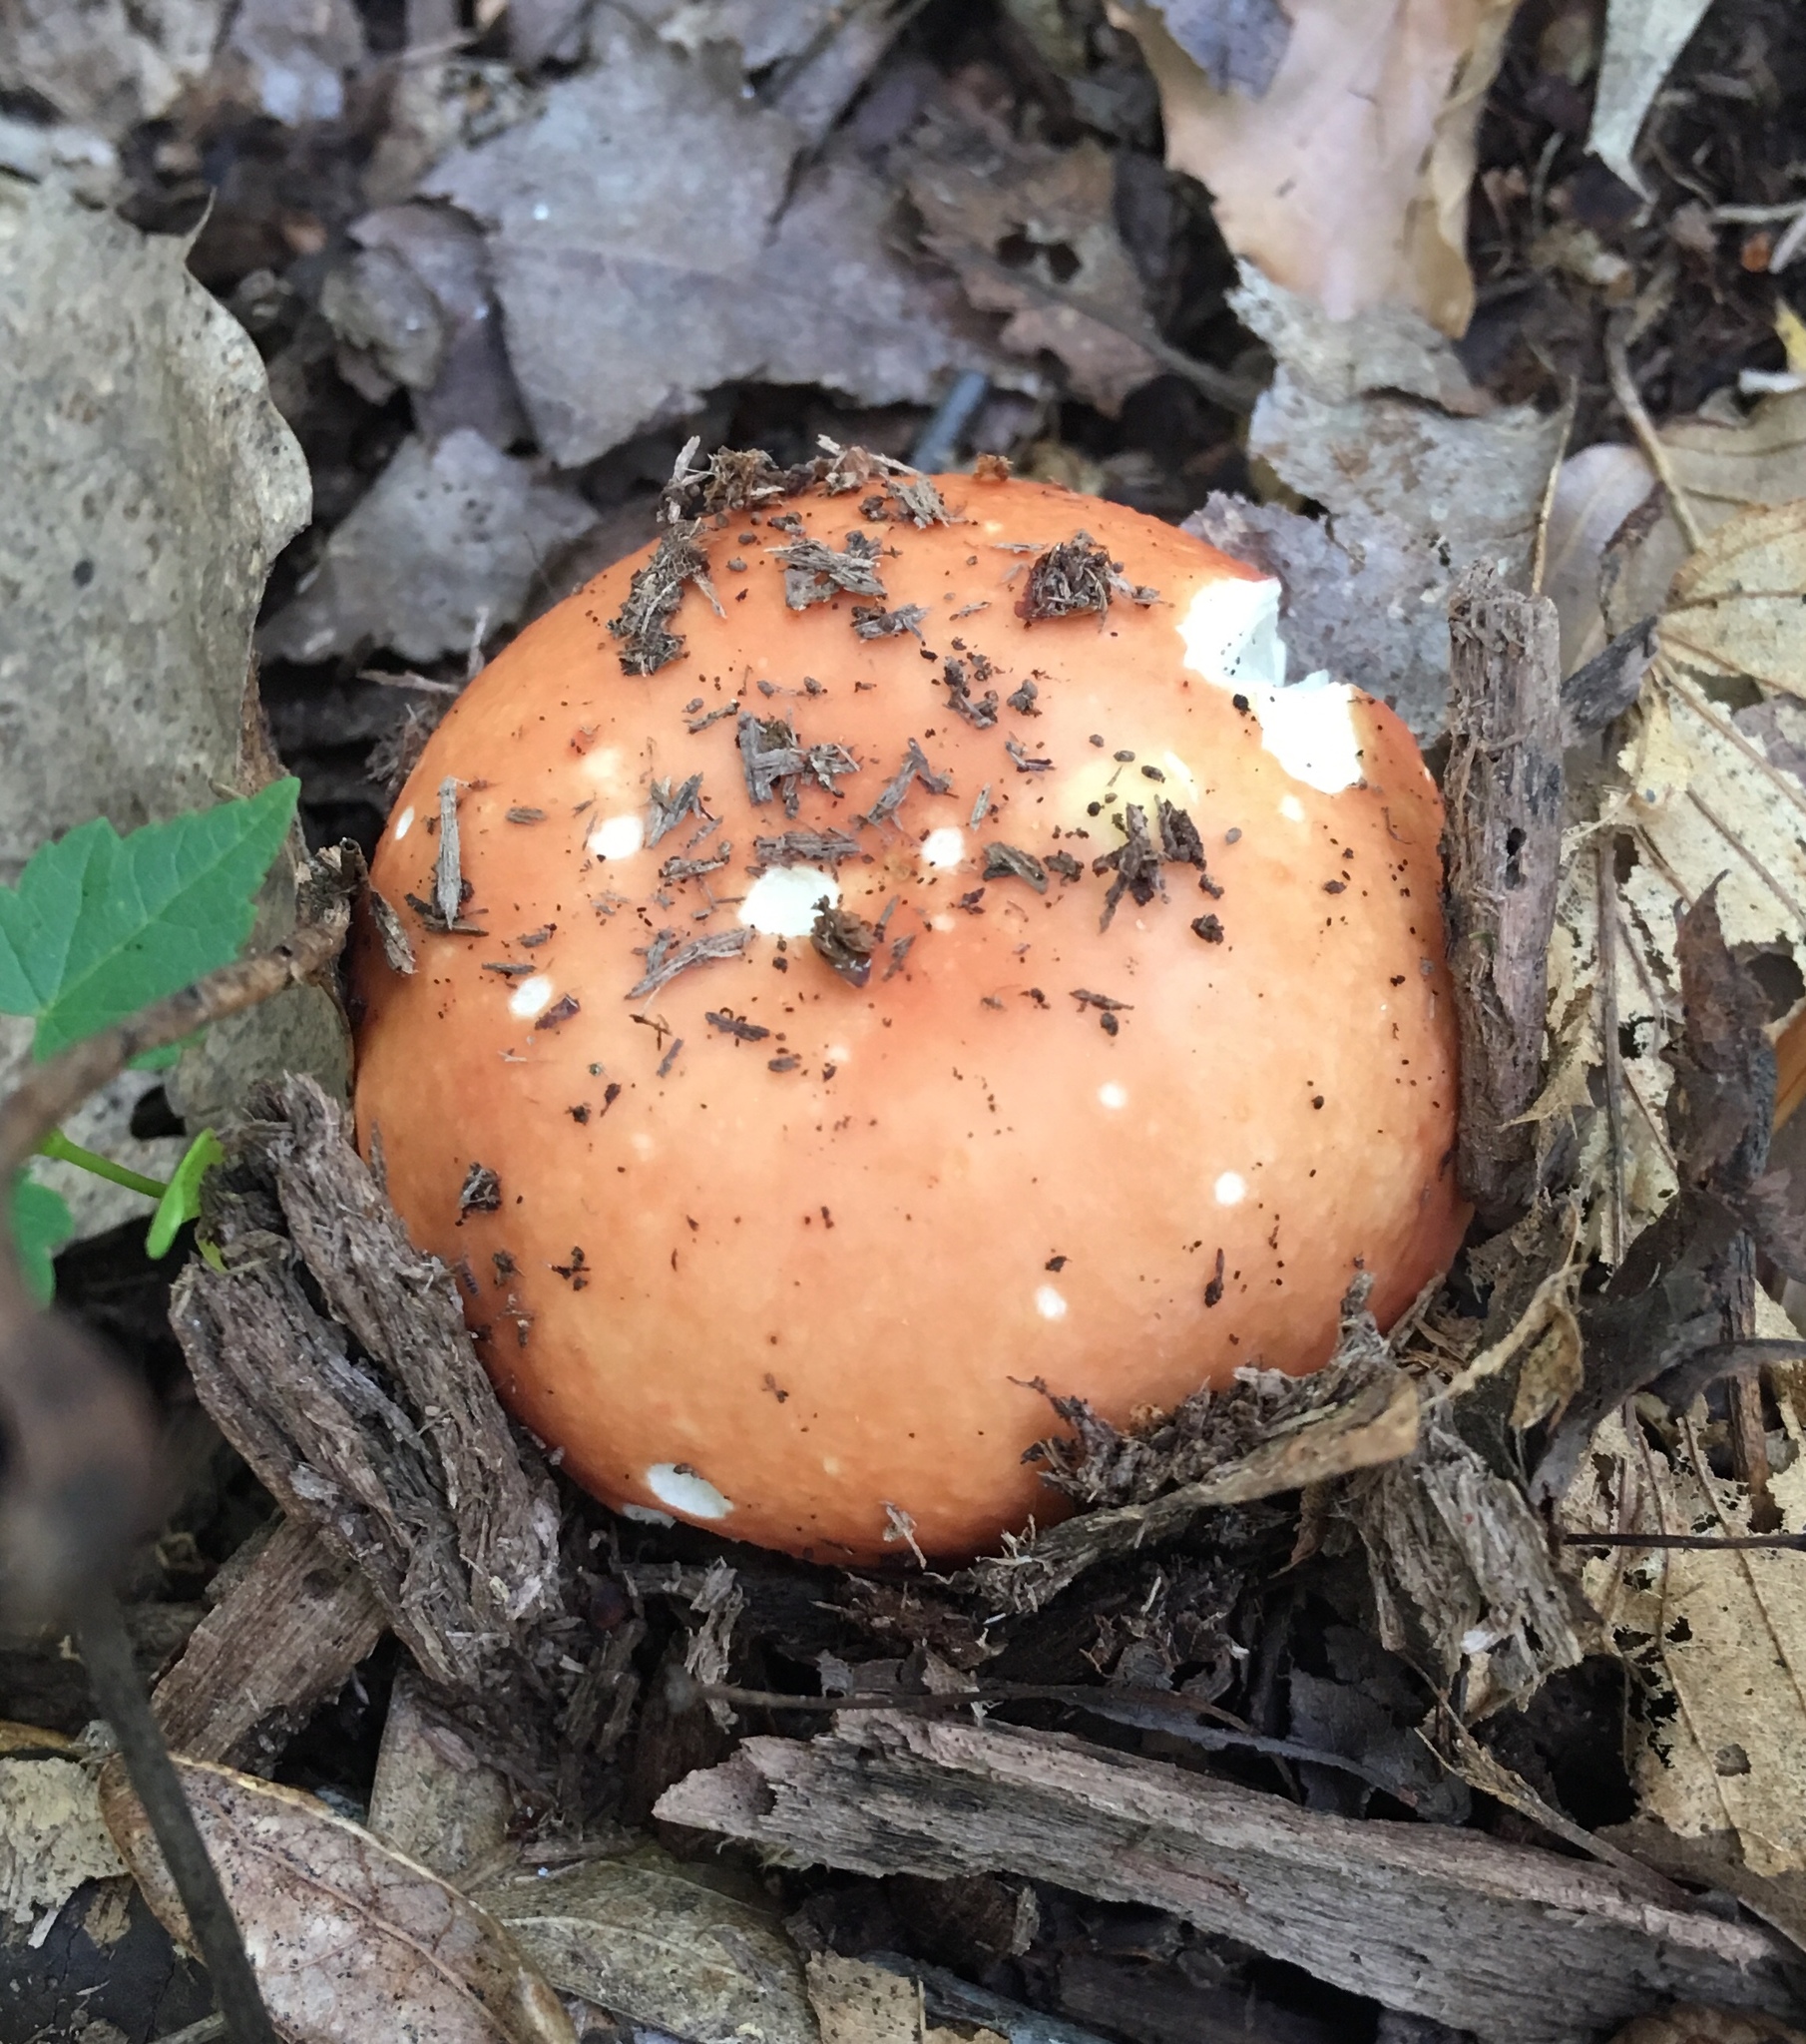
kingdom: Fungi
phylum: Basidiomycota
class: Agaricomycetes
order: Russulales
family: Russulaceae
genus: Russula
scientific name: Russula rugulosa
